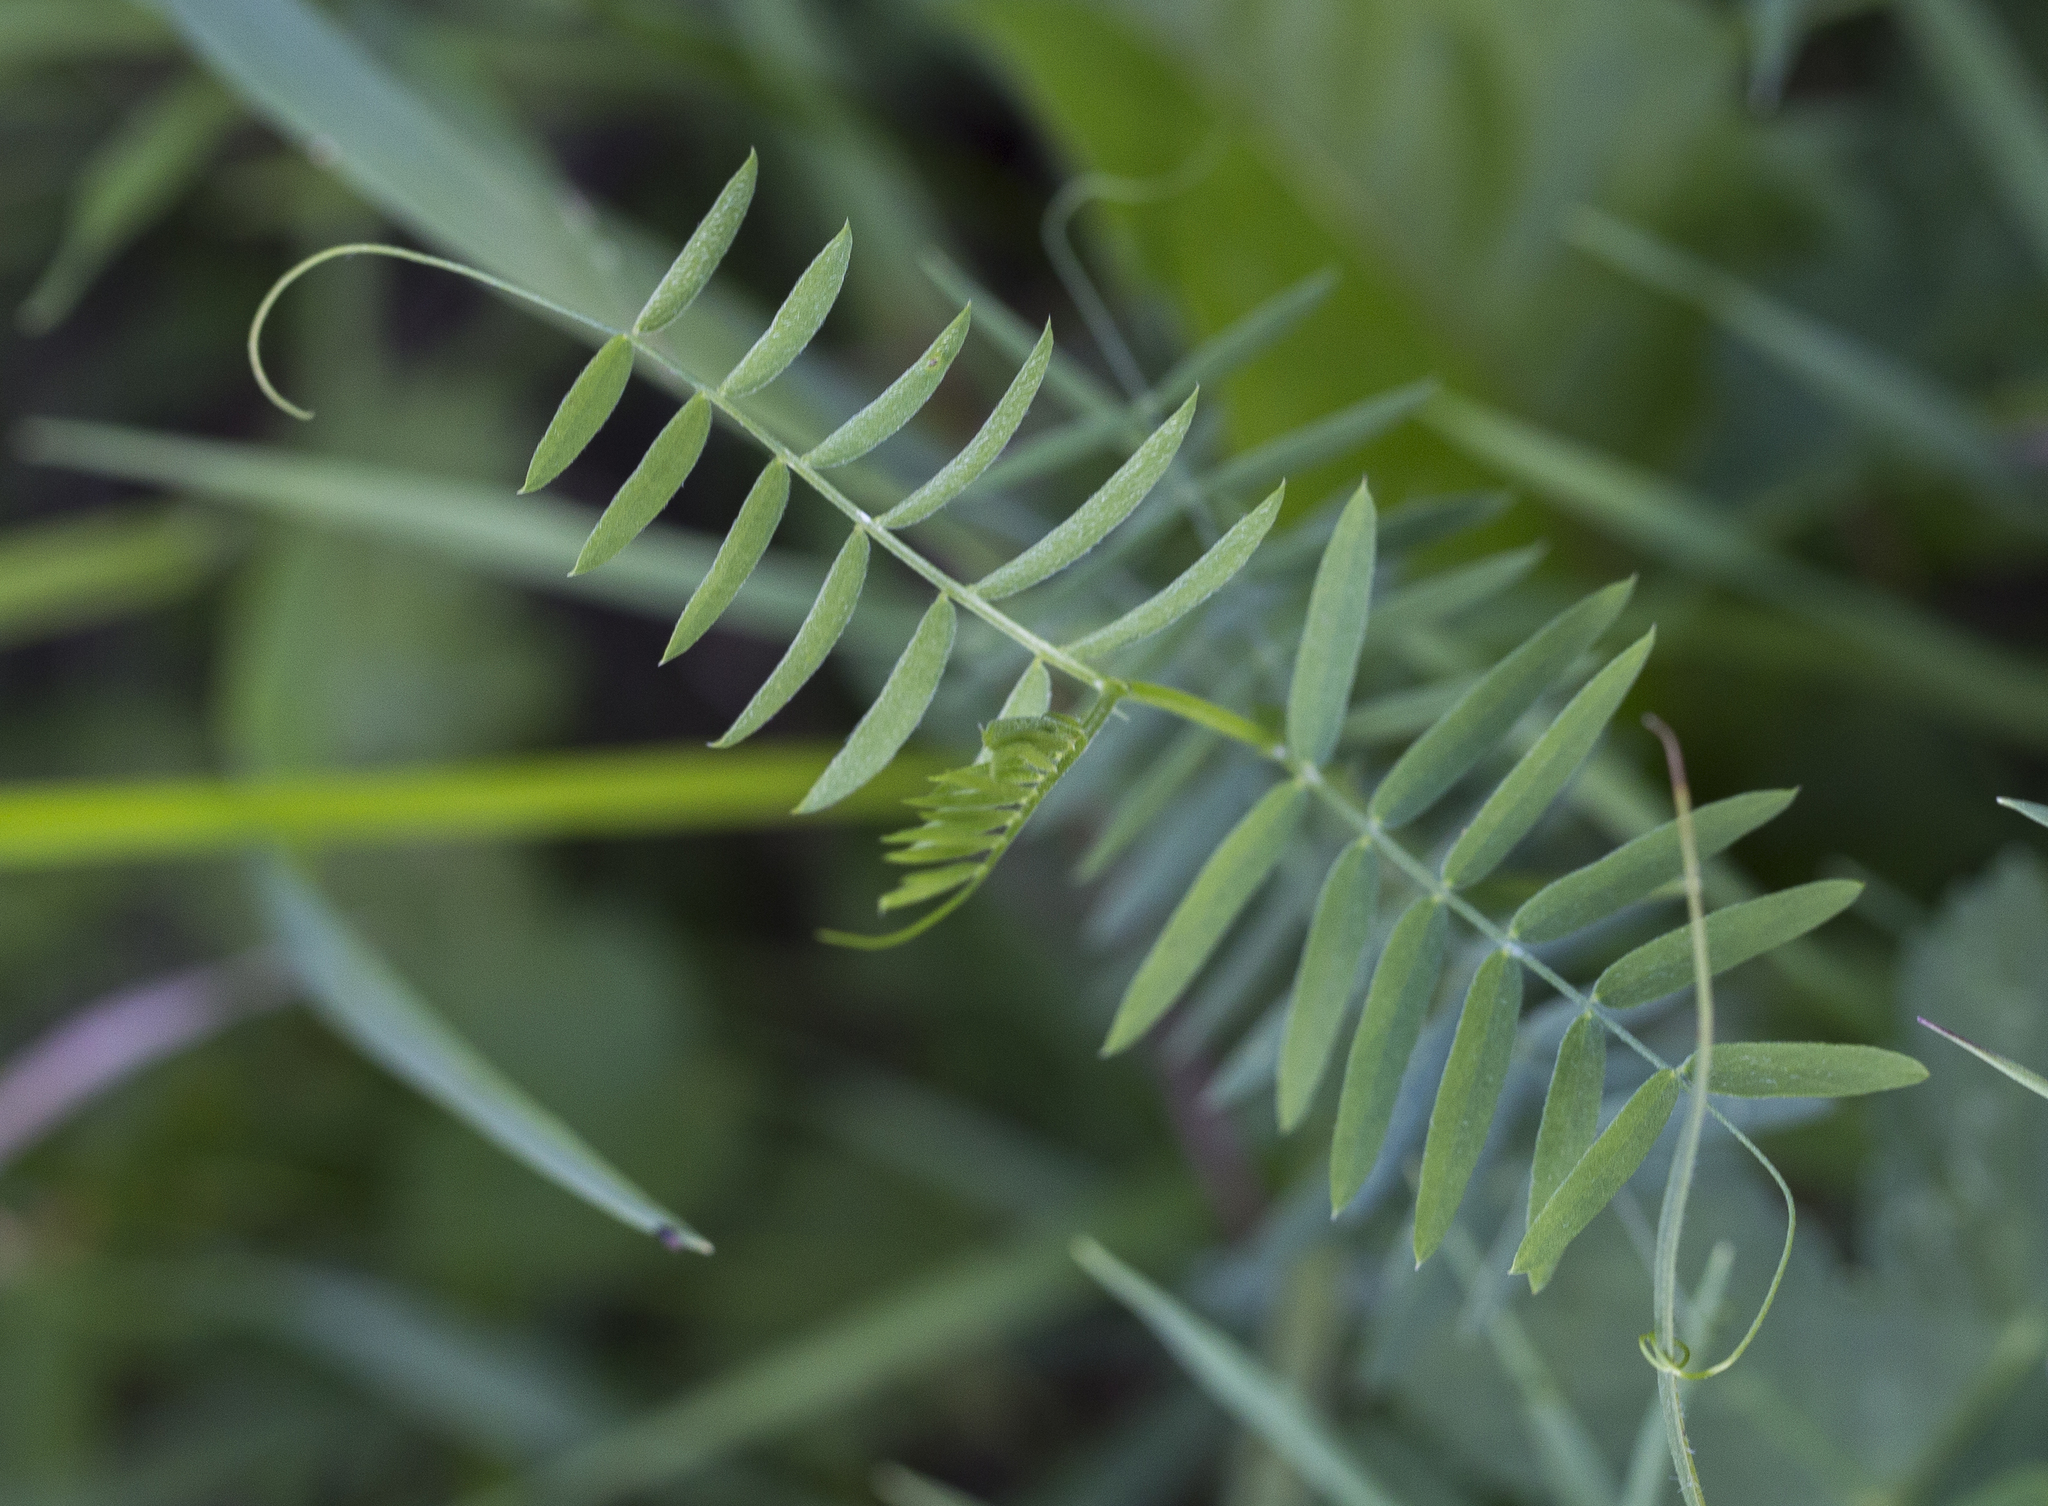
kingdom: Plantae
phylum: Tracheophyta
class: Magnoliopsida
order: Fabales
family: Fabaceae
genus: Vicia
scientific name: Vicia cracca
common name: Bird vetch
